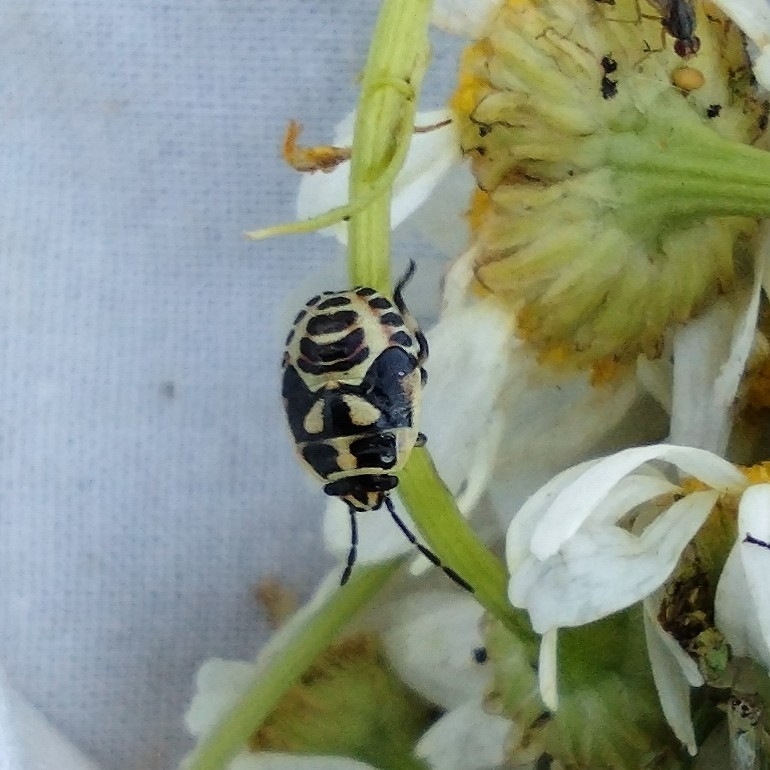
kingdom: Animalia
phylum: Arthropoda
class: Insecta
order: Hemiptera
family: Pentatomidae
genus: Eurydema
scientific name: Eurydema oleracea
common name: Cabbage bug
